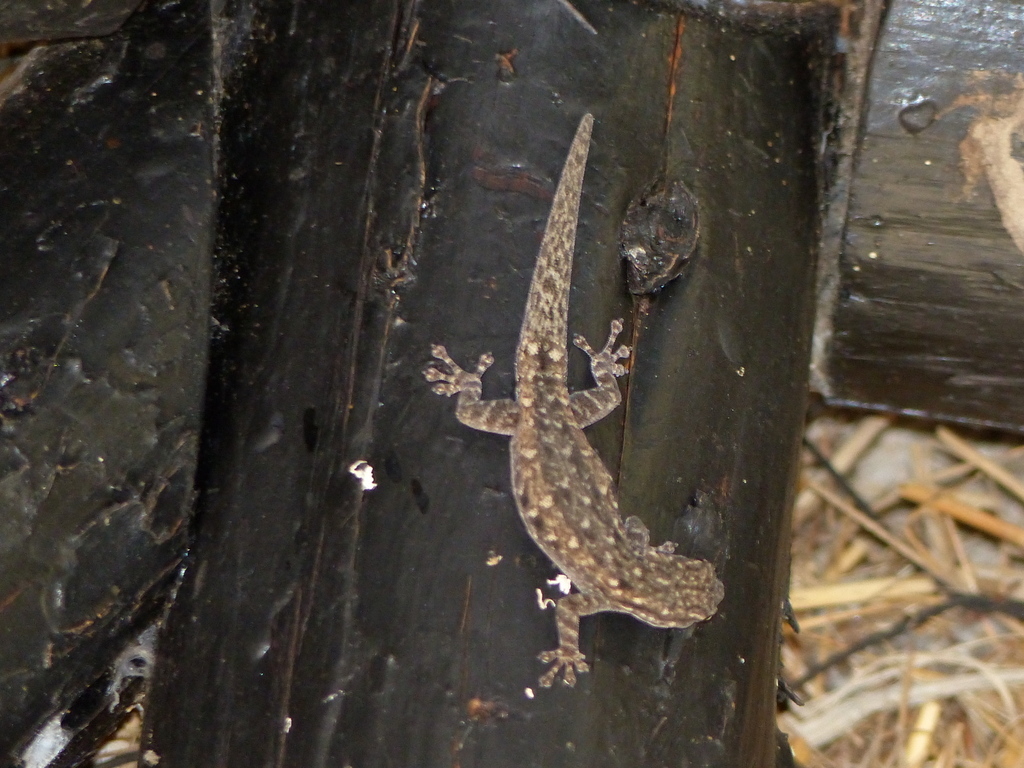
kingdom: Animalia
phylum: Chordata
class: Squamata
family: Gekkonidae
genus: Lygodactylus
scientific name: Lygodactylus stevensoni
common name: Stevenson's dwarf gecko
